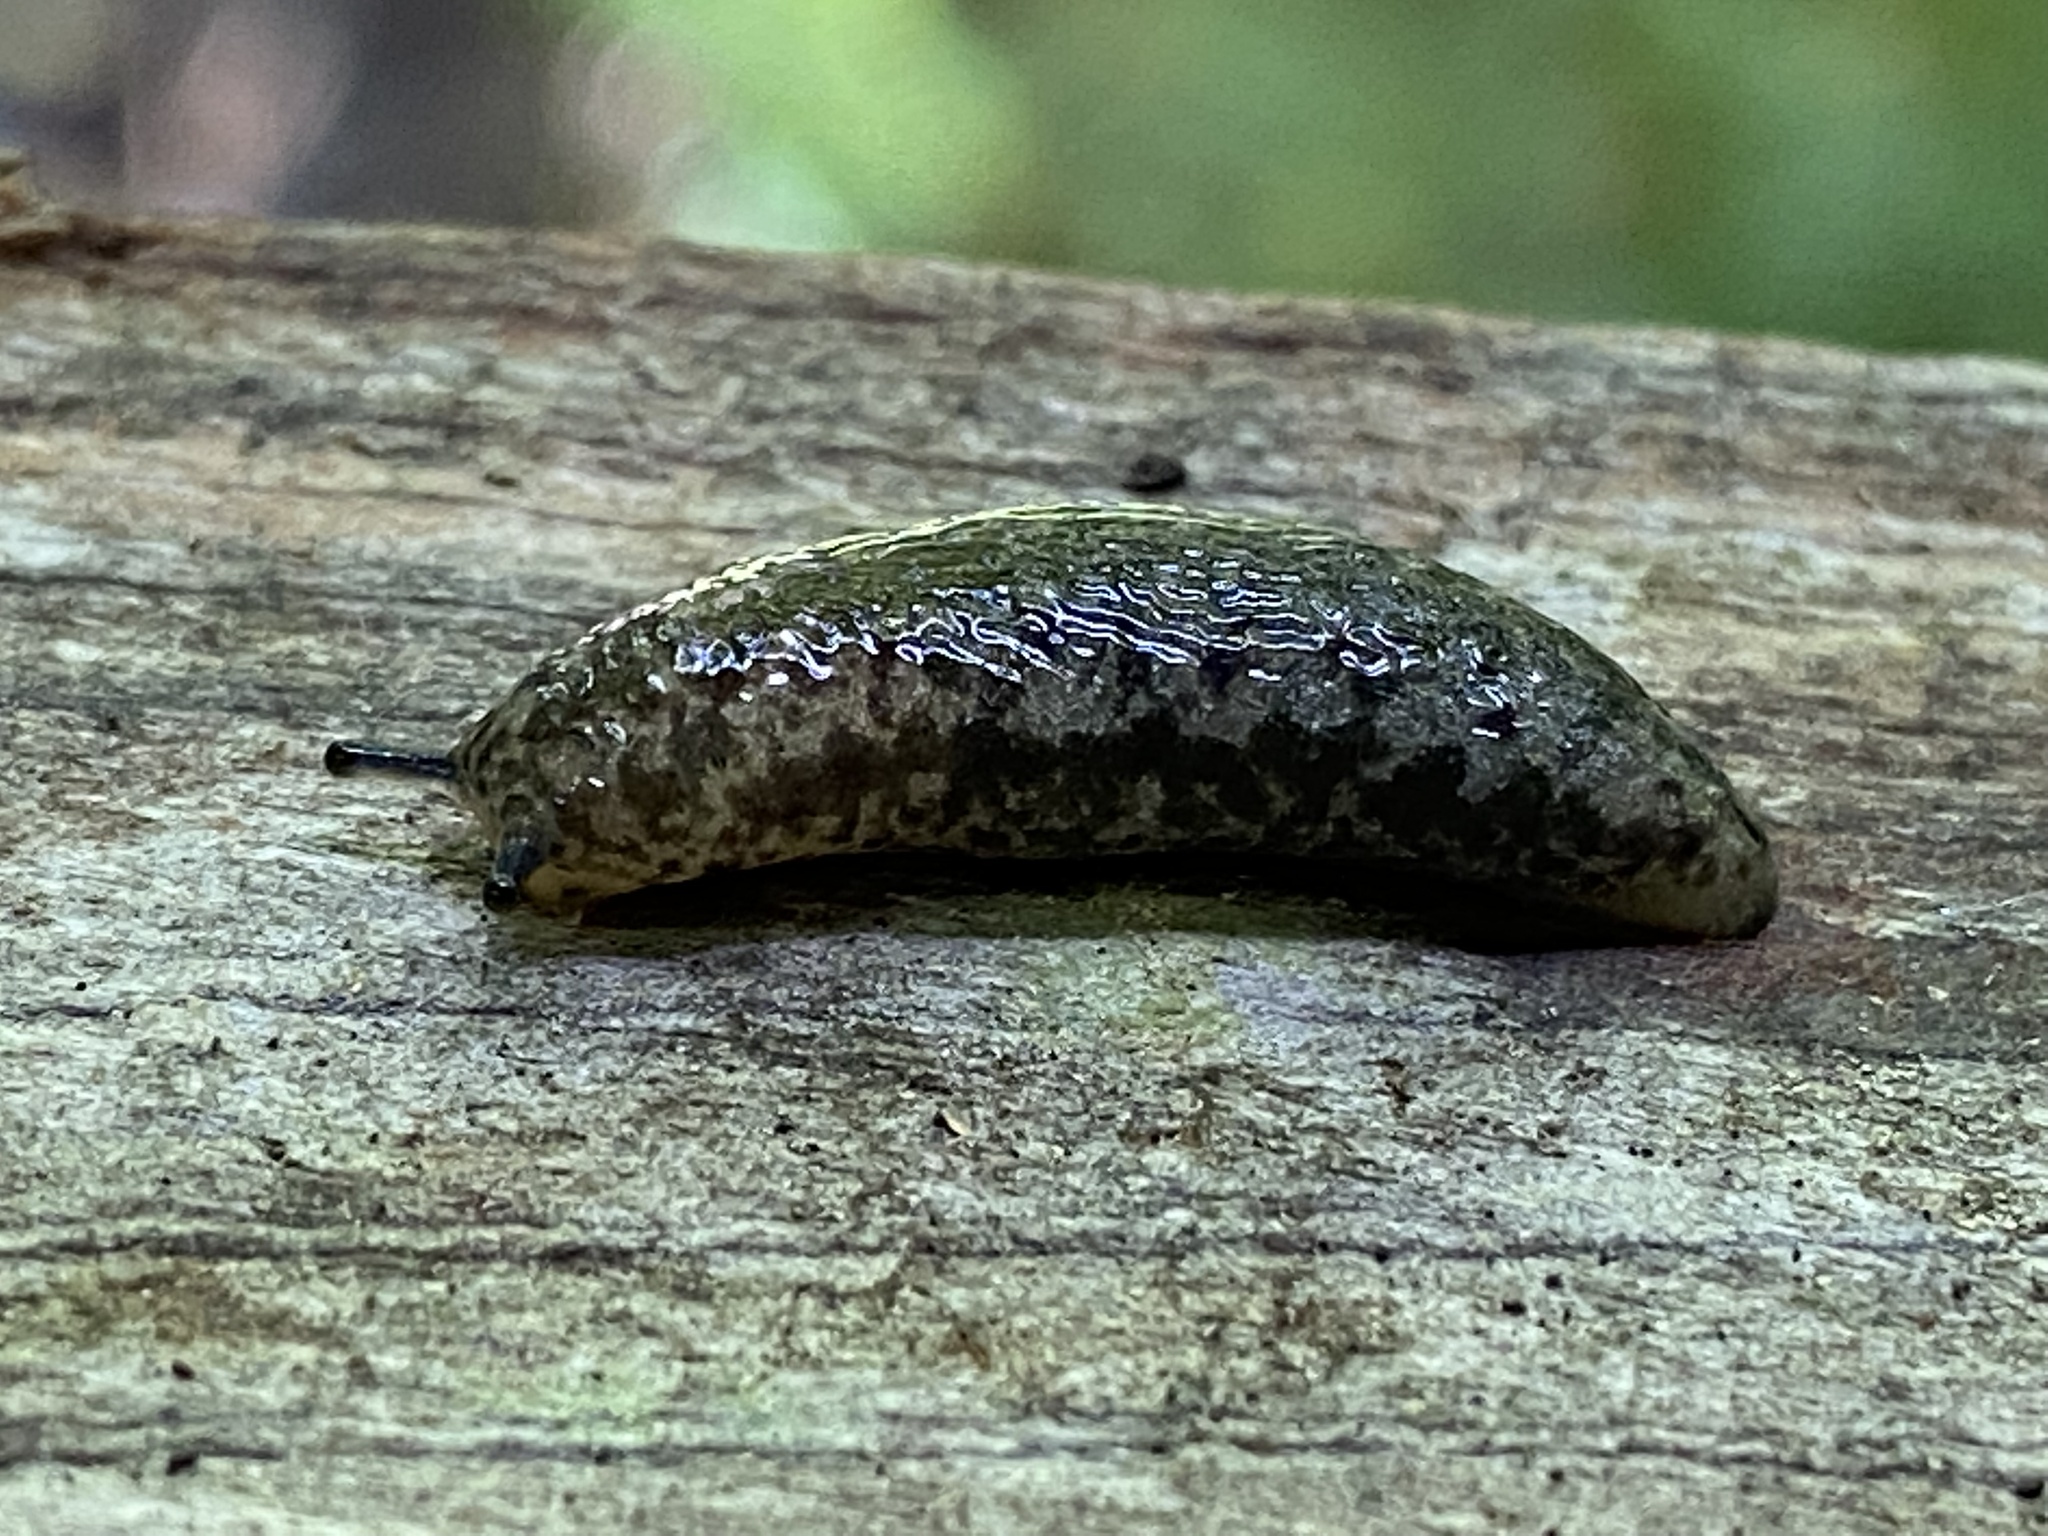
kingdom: Animalia
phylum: Mollusca
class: Gastropoda
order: Stylommatophora
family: Philomycidae
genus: Megapallifera
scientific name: Megapallifera mutabilis
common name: Changeable mantleslug
